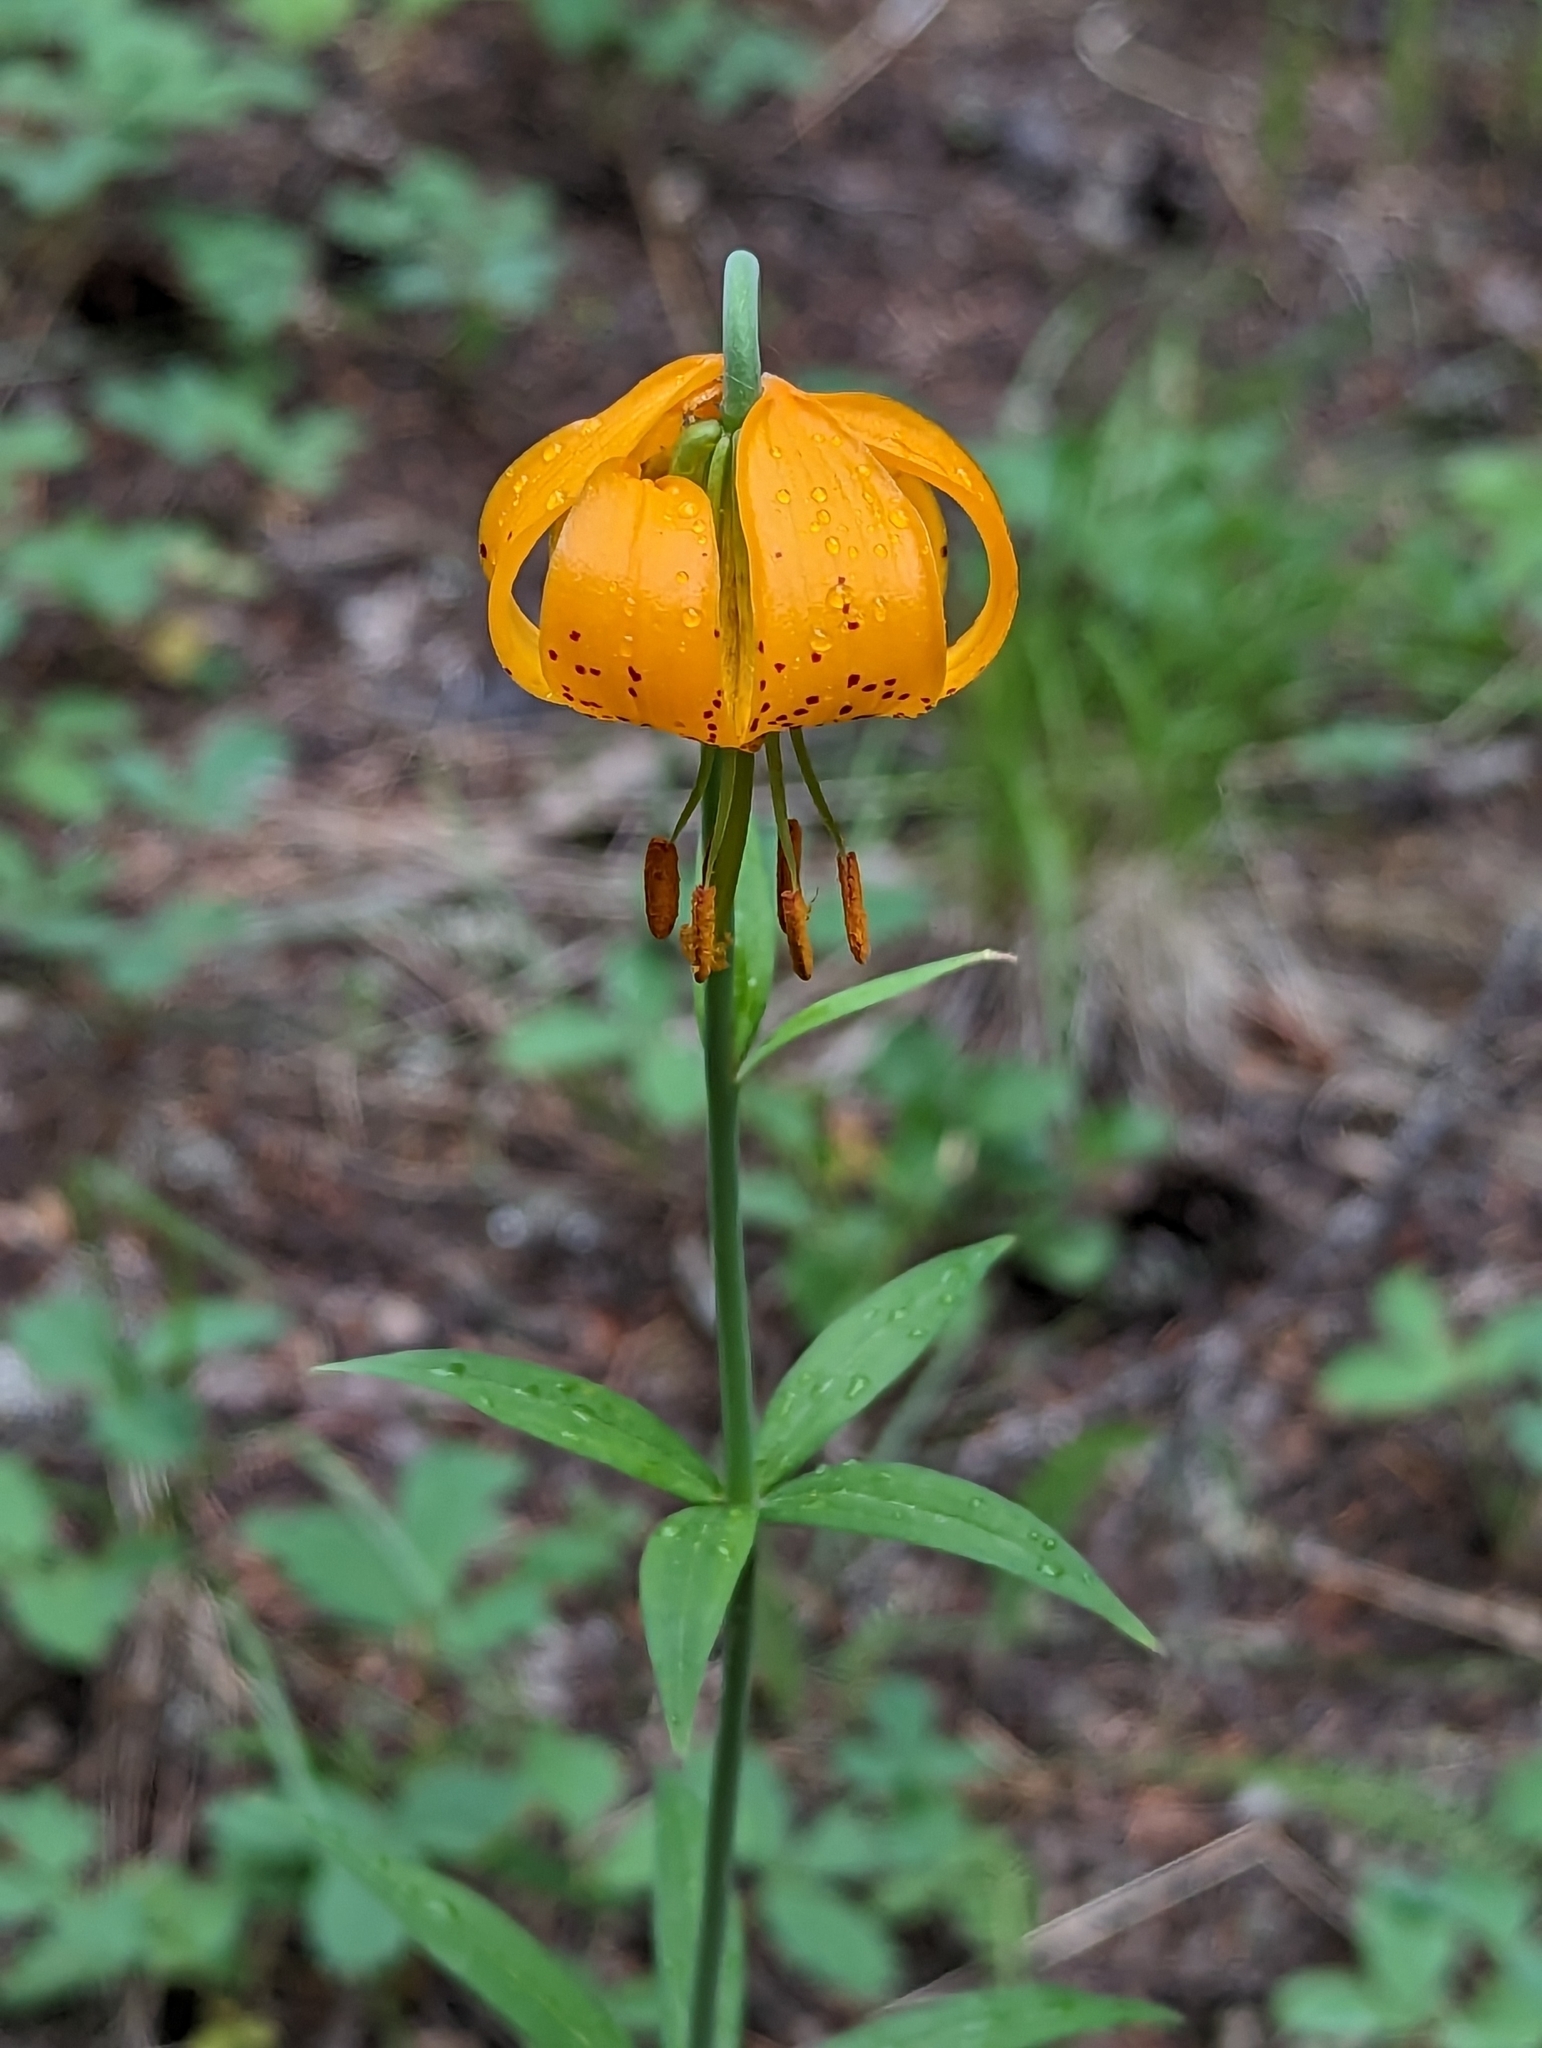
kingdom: Plantae
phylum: Tracheophyta
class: Liliopsida
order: Liliales
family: Liliaceae
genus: Lilium
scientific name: Lilium columbianum
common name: Columbia lily
